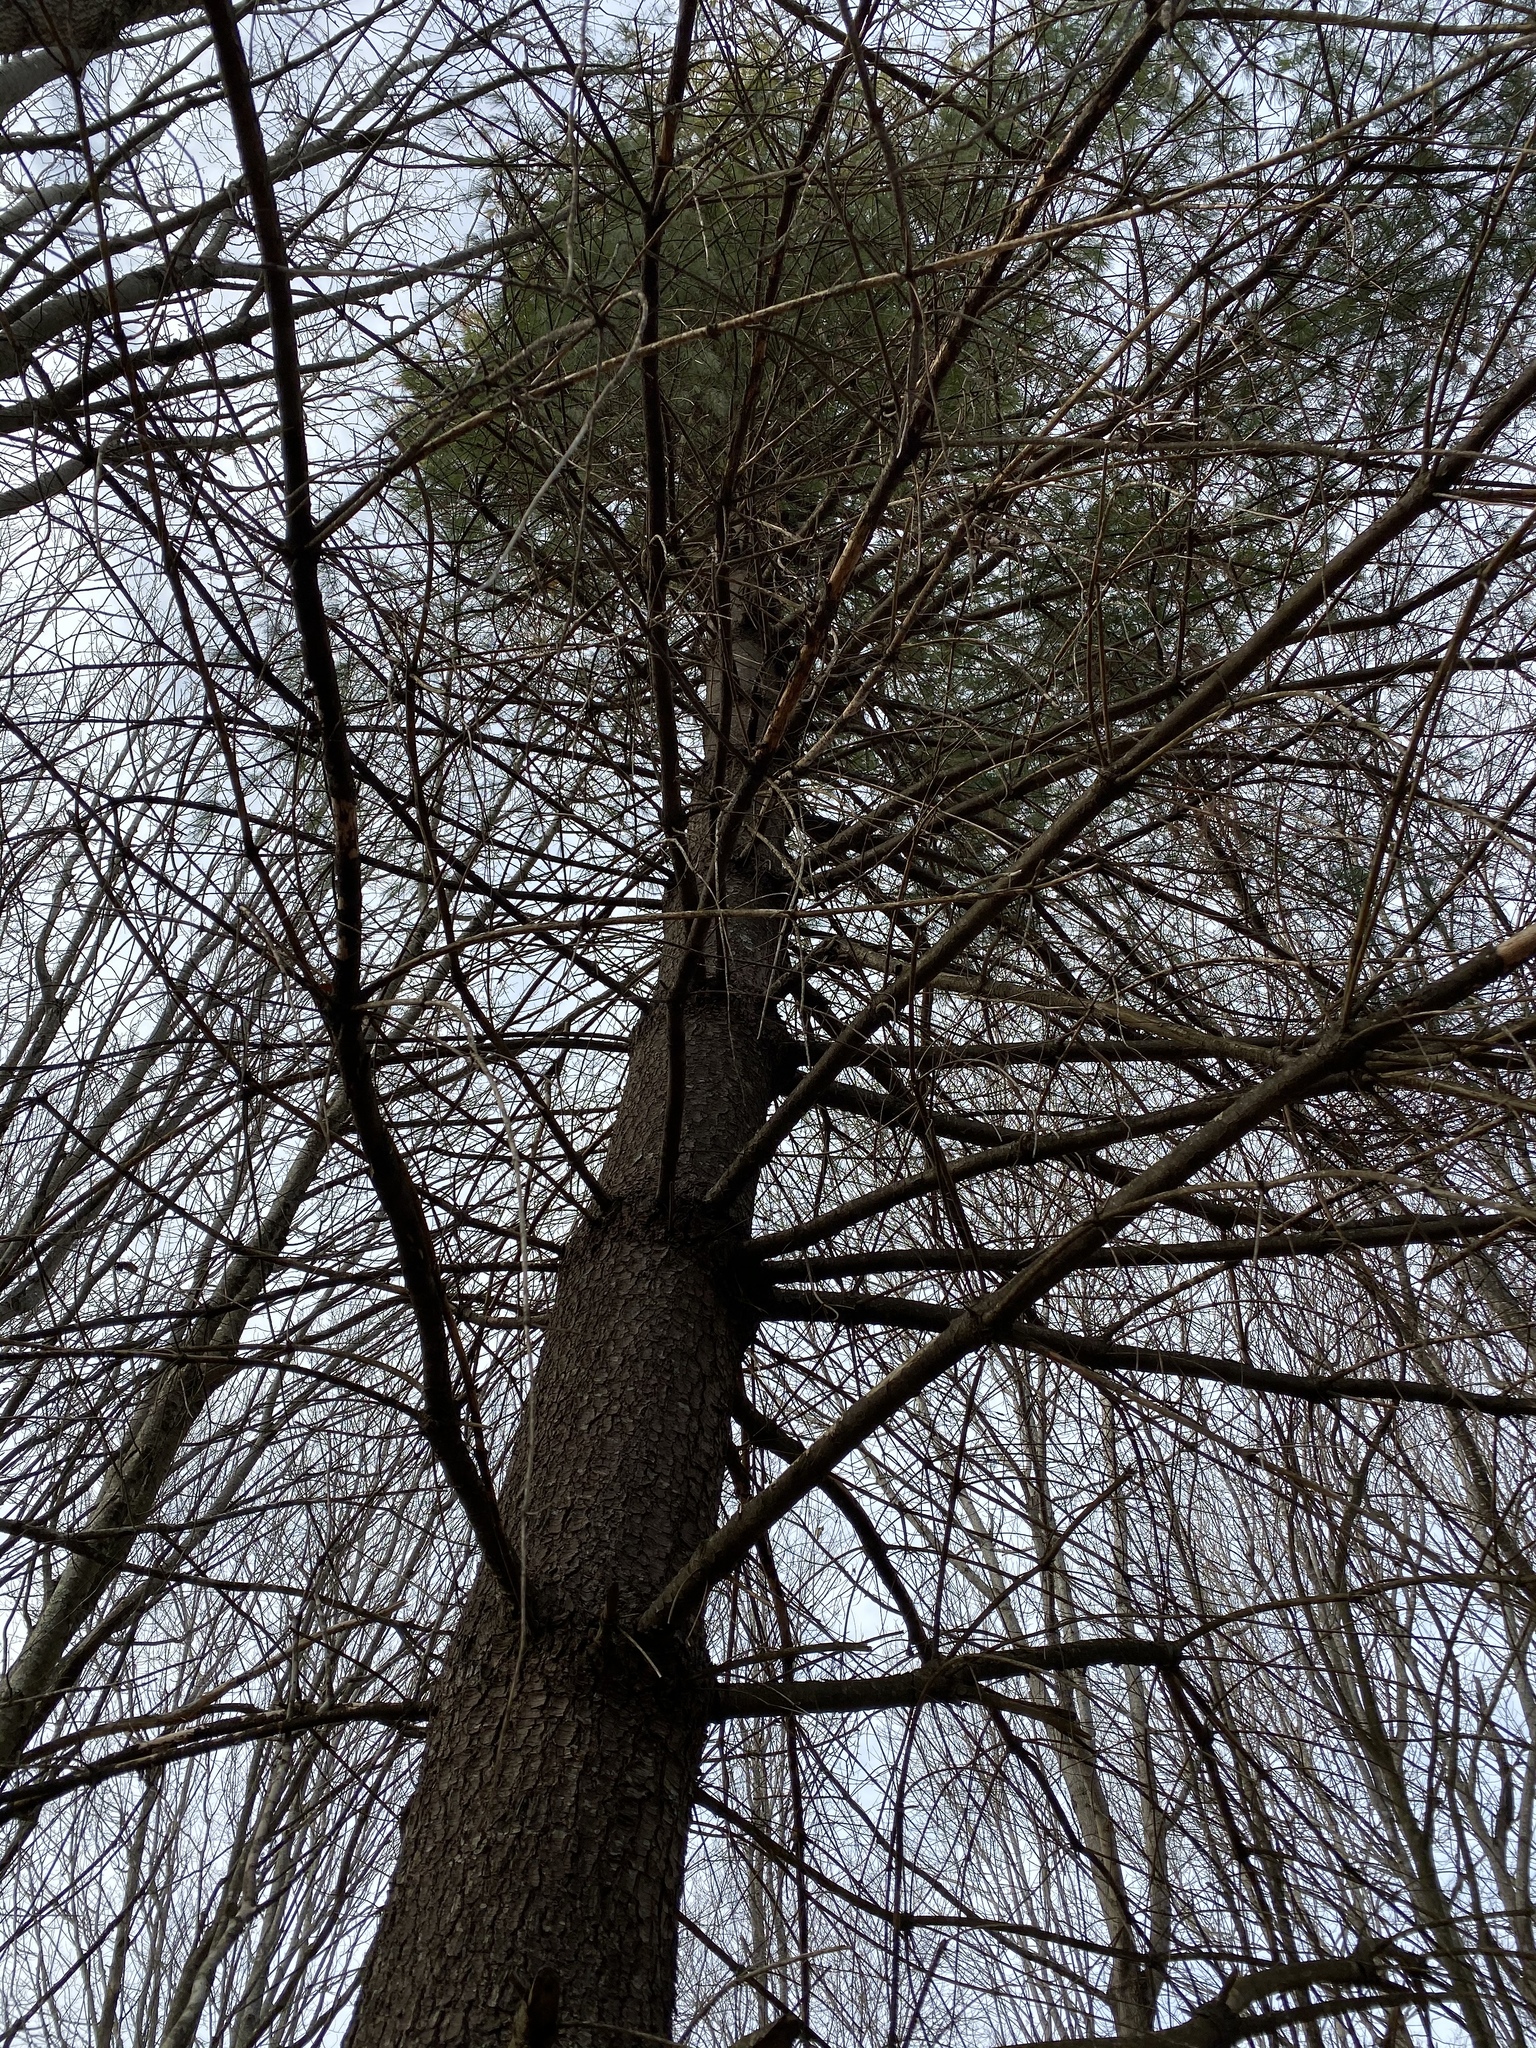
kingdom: Plantae
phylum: Tracheophyta
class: Pinopsida
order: Pinales
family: Pinaceae
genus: Pinus
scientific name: Pinus strobus
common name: Weymouth pine
